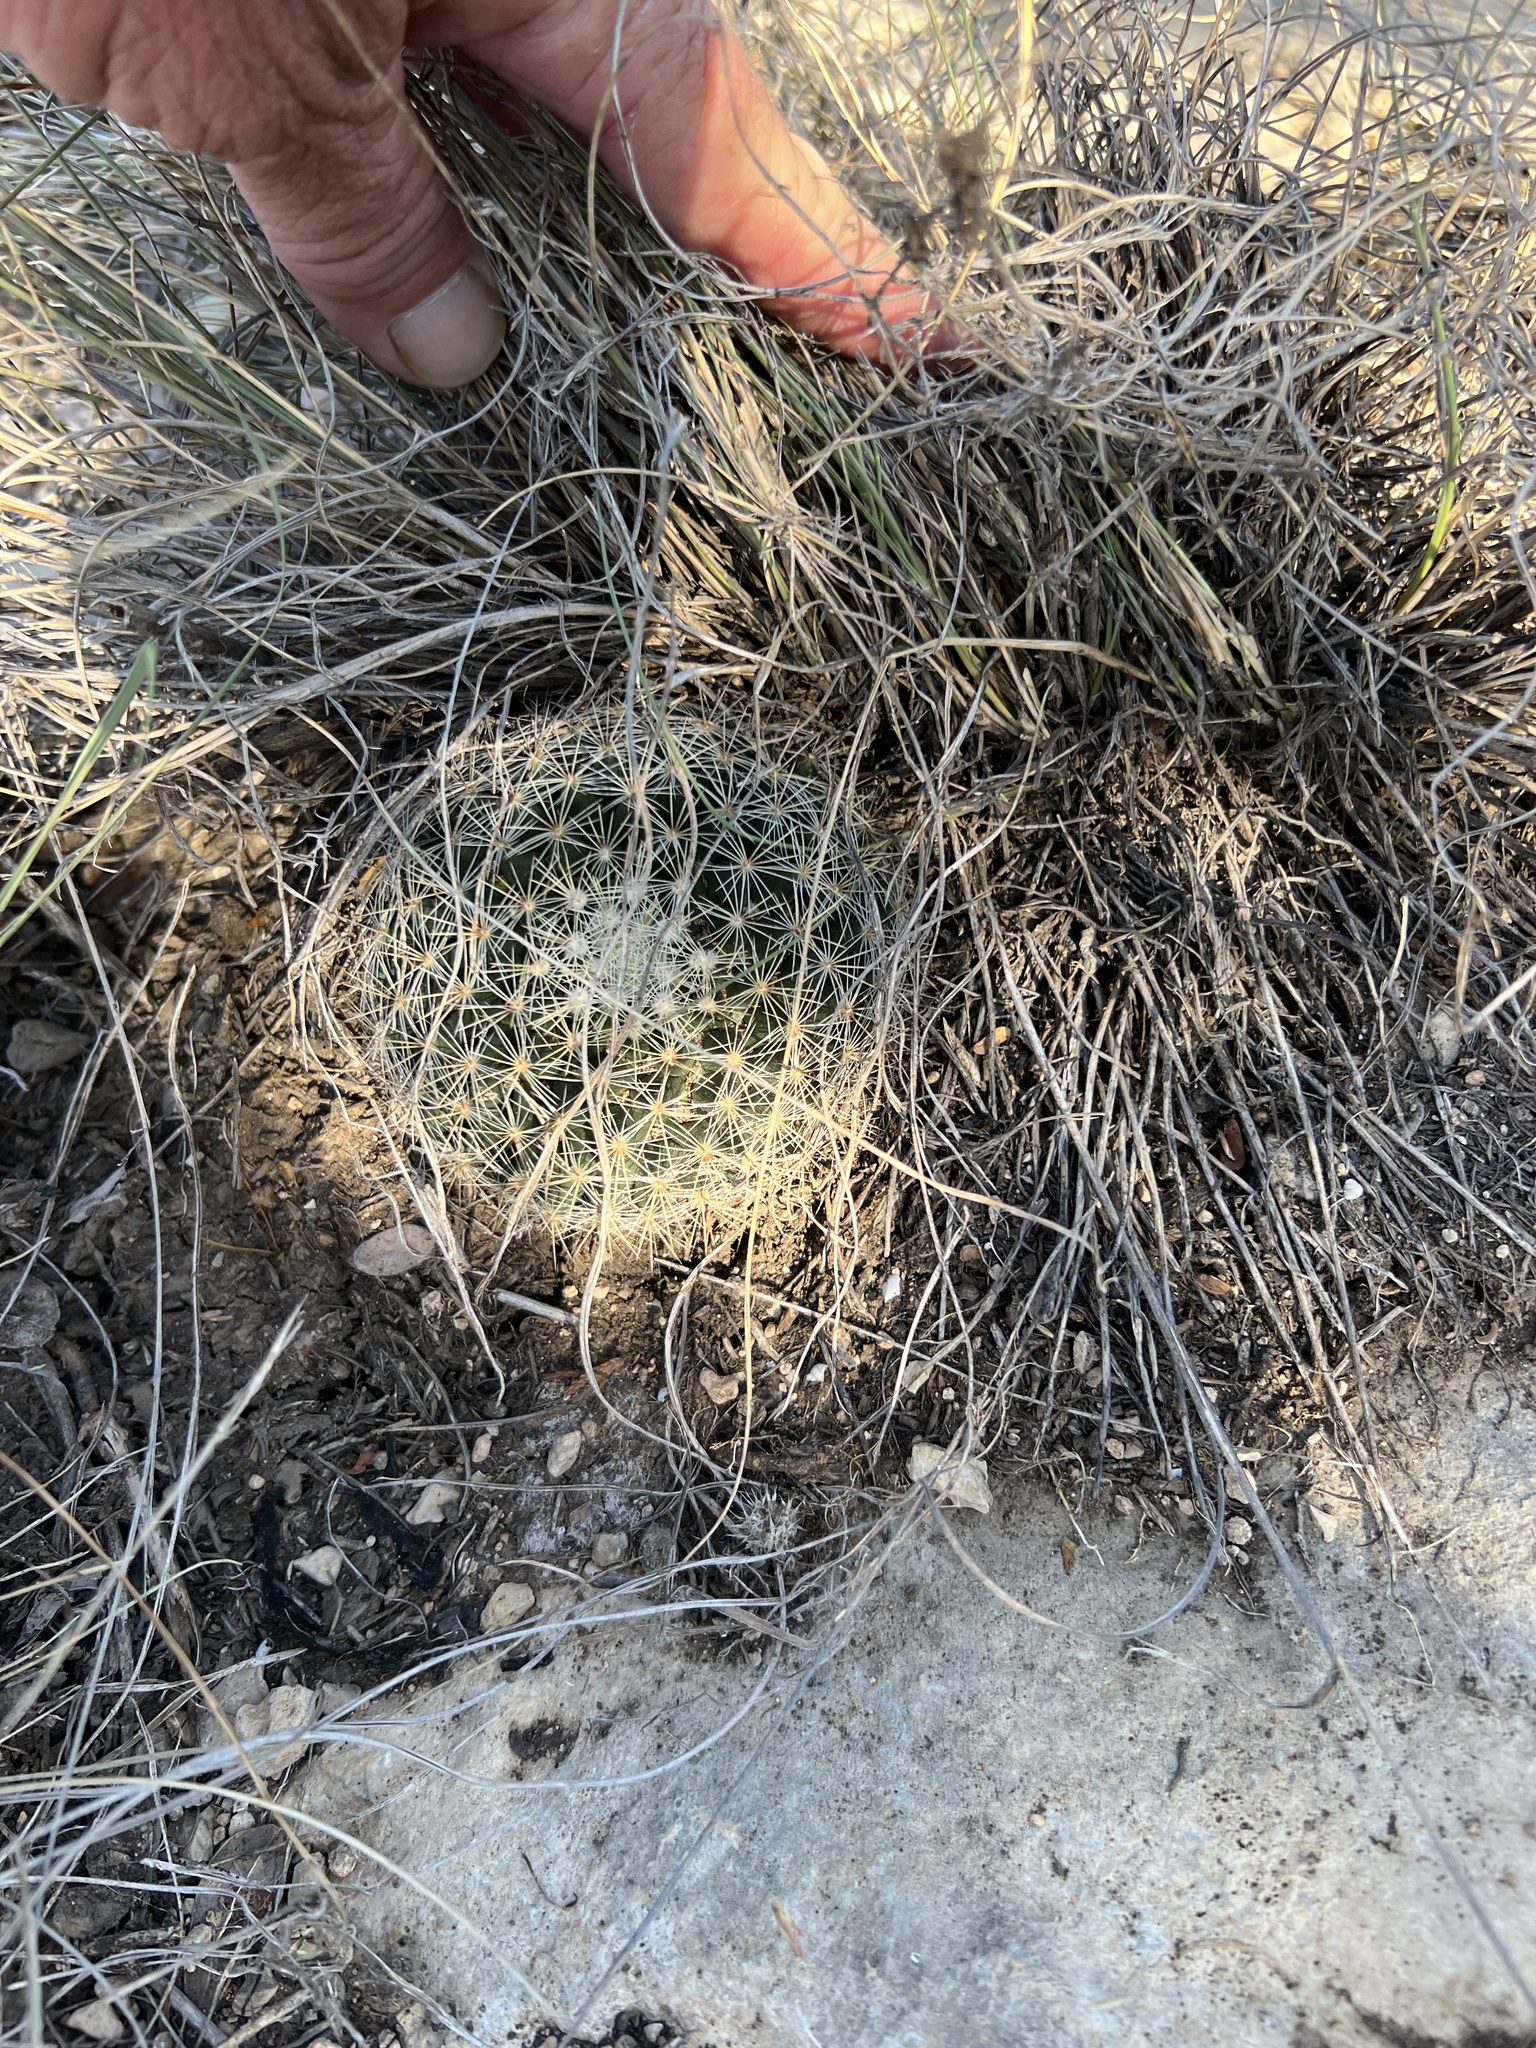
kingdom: Plantae
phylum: Tracheophyta
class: Magnoliopsida
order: Caryophyllales
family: Cactaceae
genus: Mammillaria
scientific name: Mammillaria heyderi
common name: Little nipple cactus
